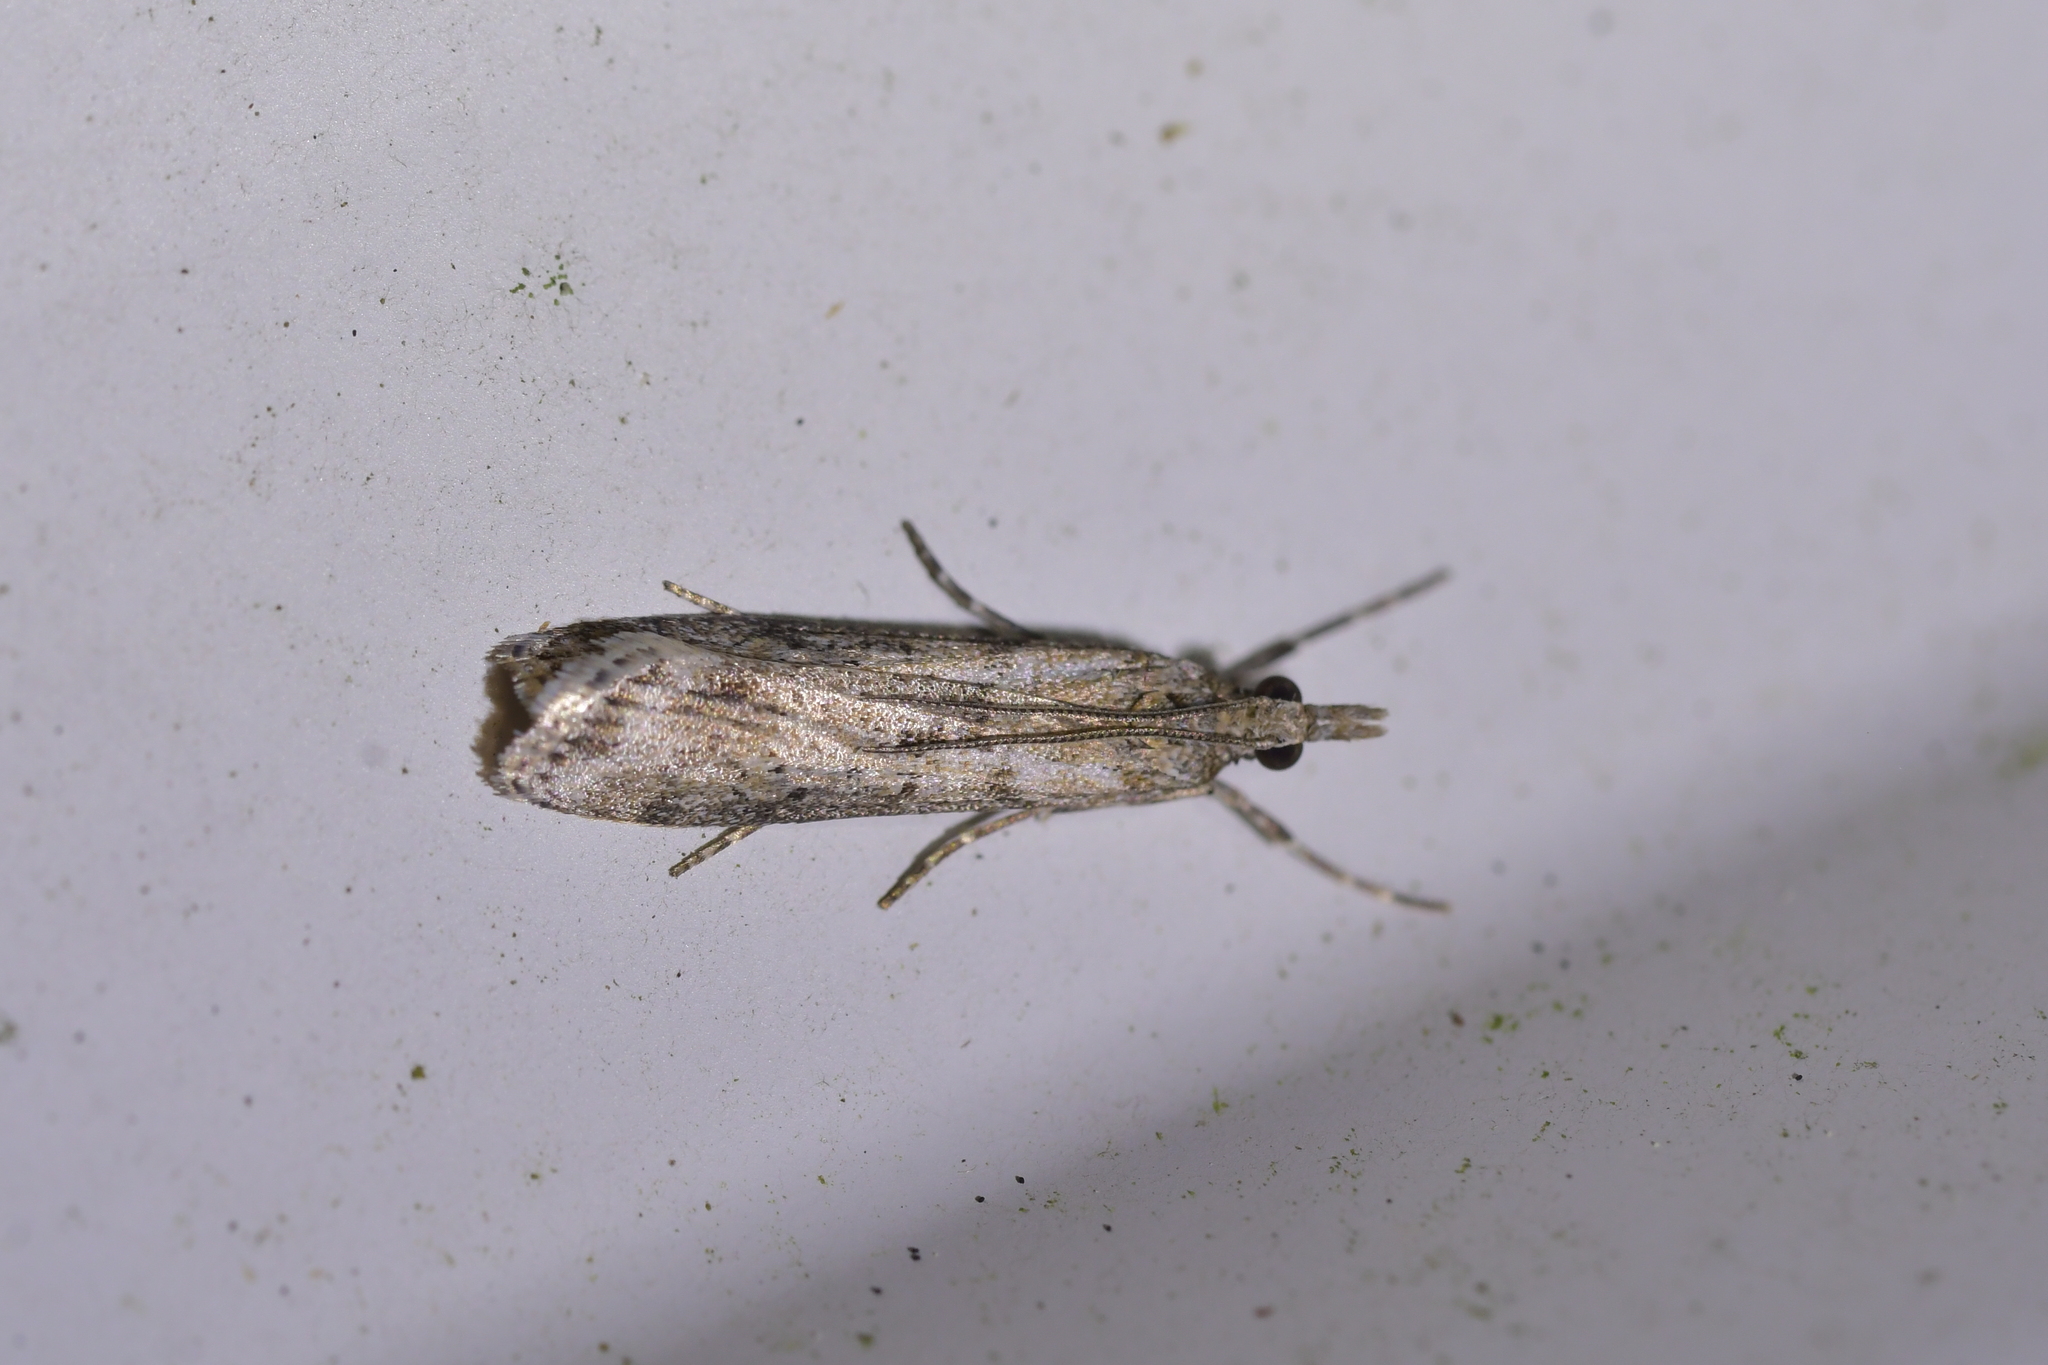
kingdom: Animalia
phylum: Arthropoda
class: Insecta
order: Lepidoptera
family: Crambidae
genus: Eudonia
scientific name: Eudonia leptalea
